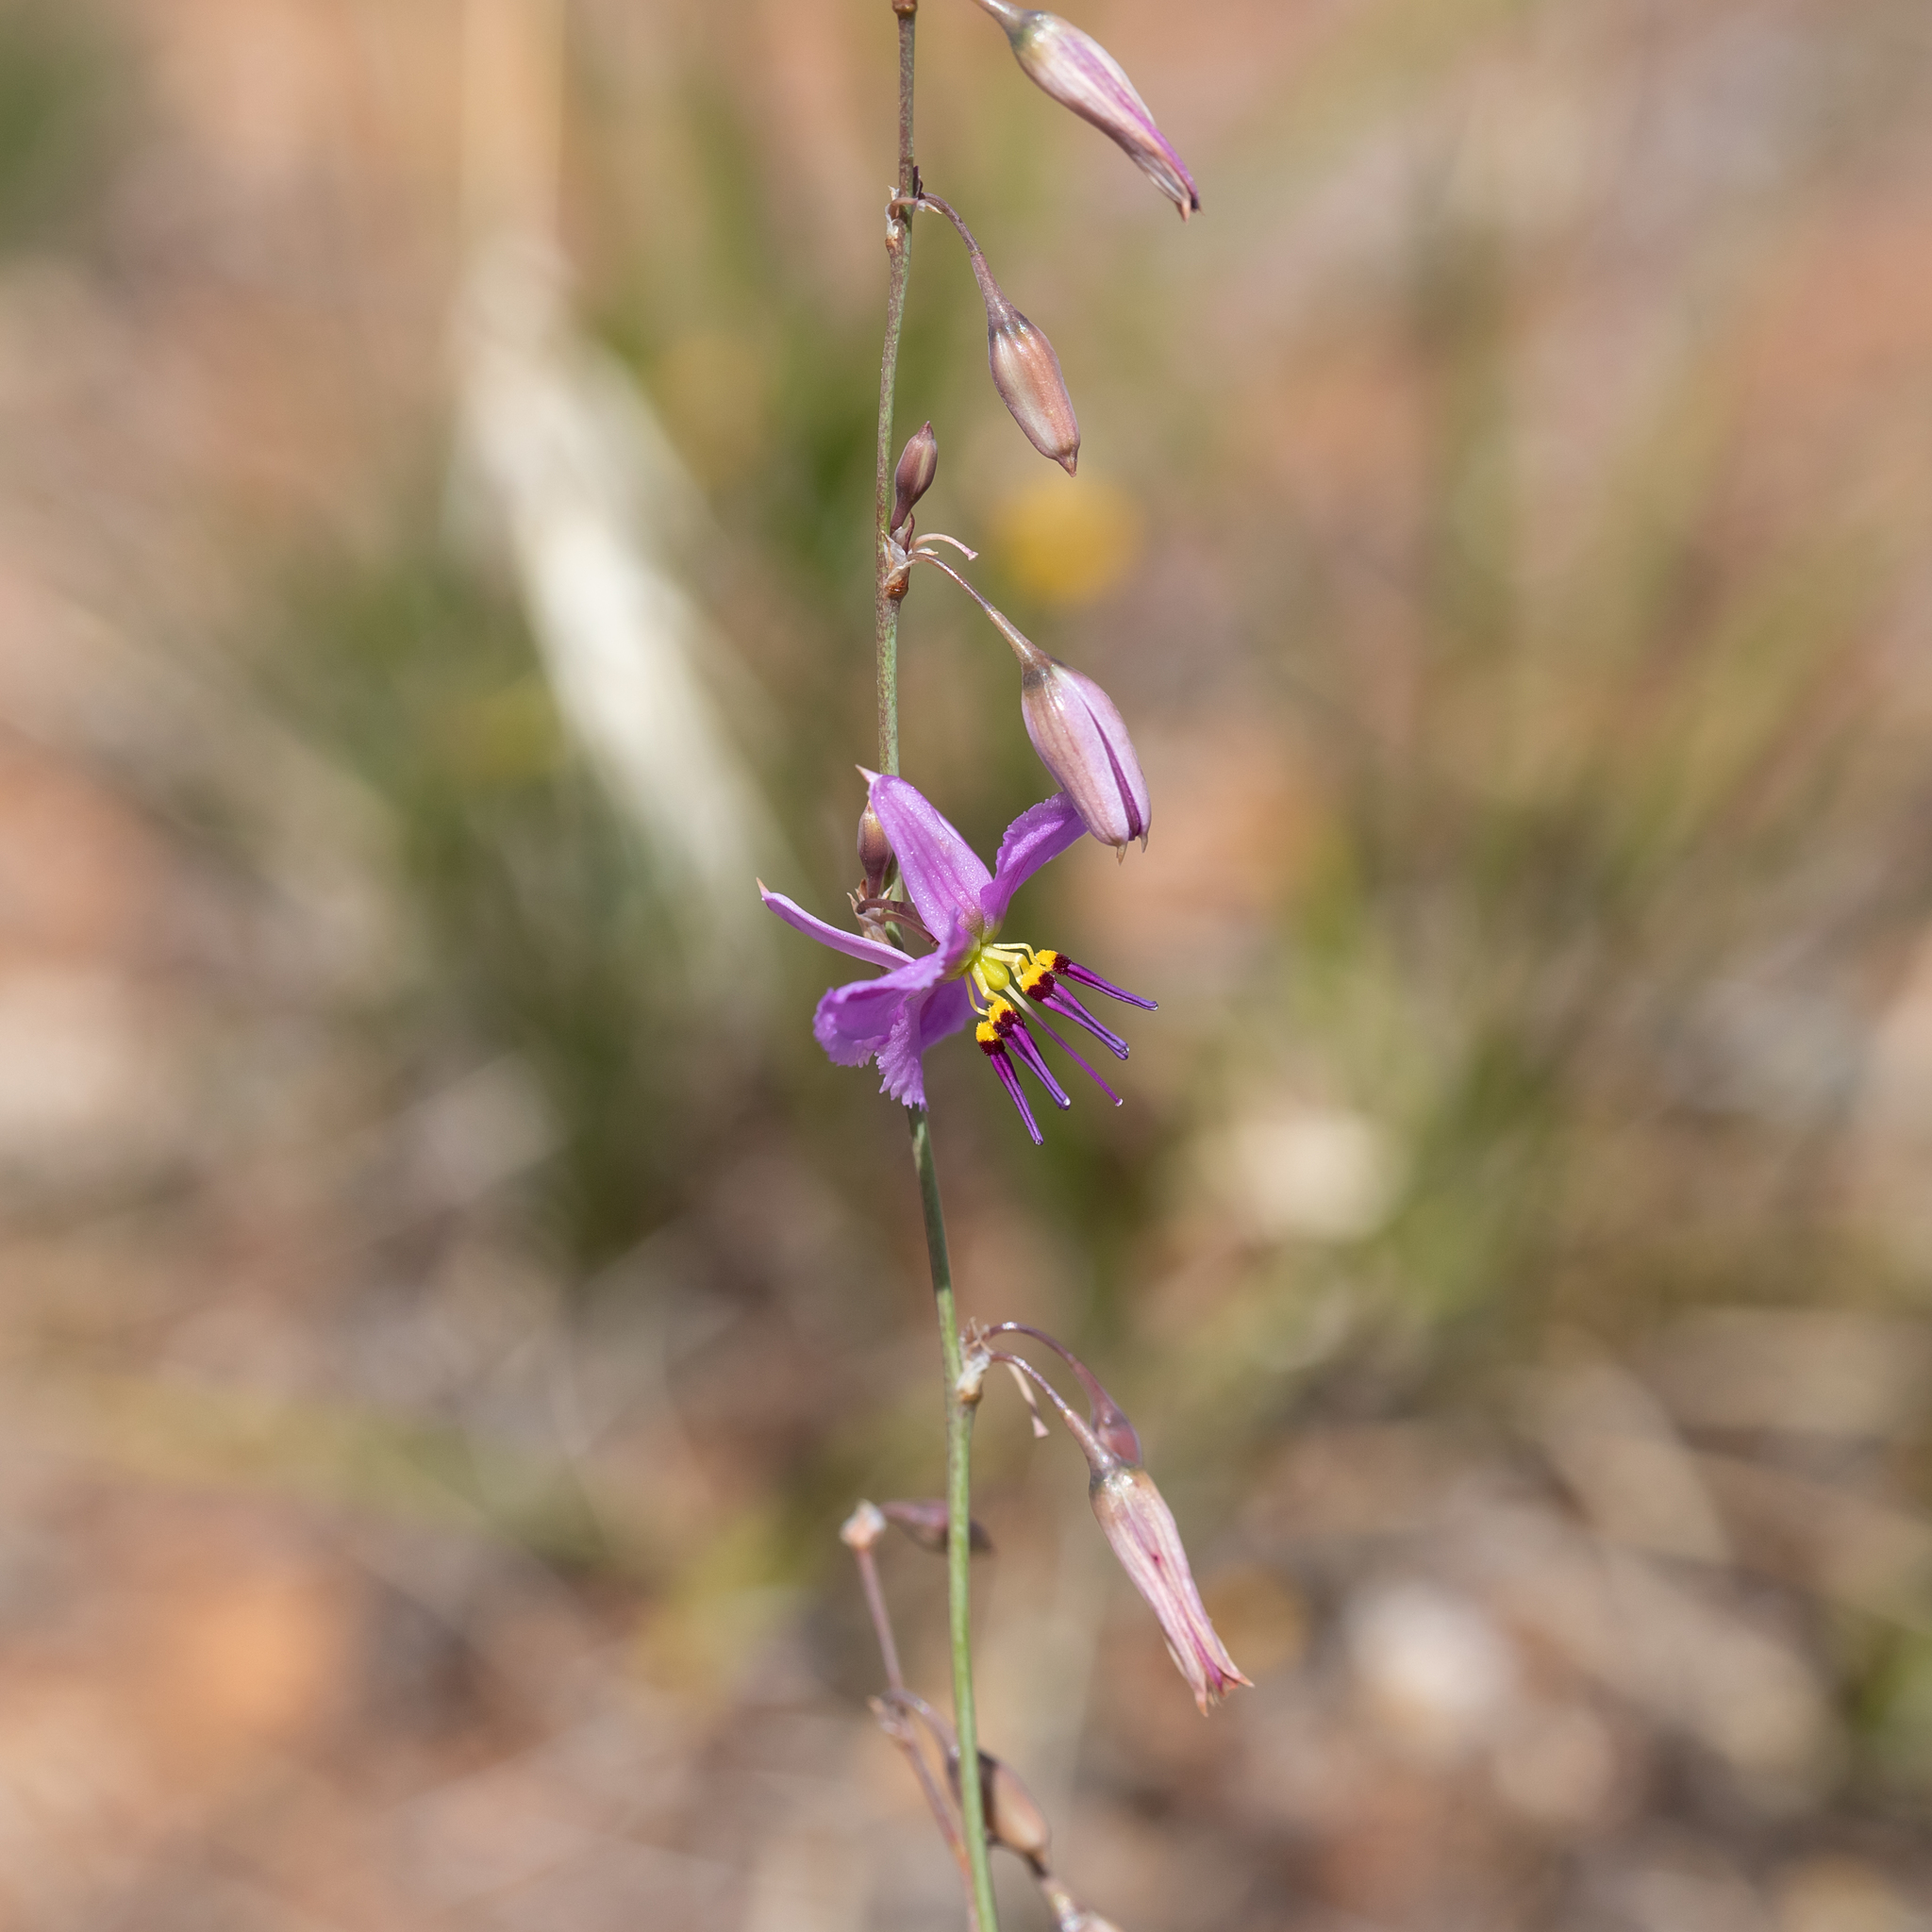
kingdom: Plantae
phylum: Tracheophyta
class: Liliopsida
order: Asparagales
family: Asparagaceae
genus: Dichopogon
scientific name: Dichopogon fimbriatus
